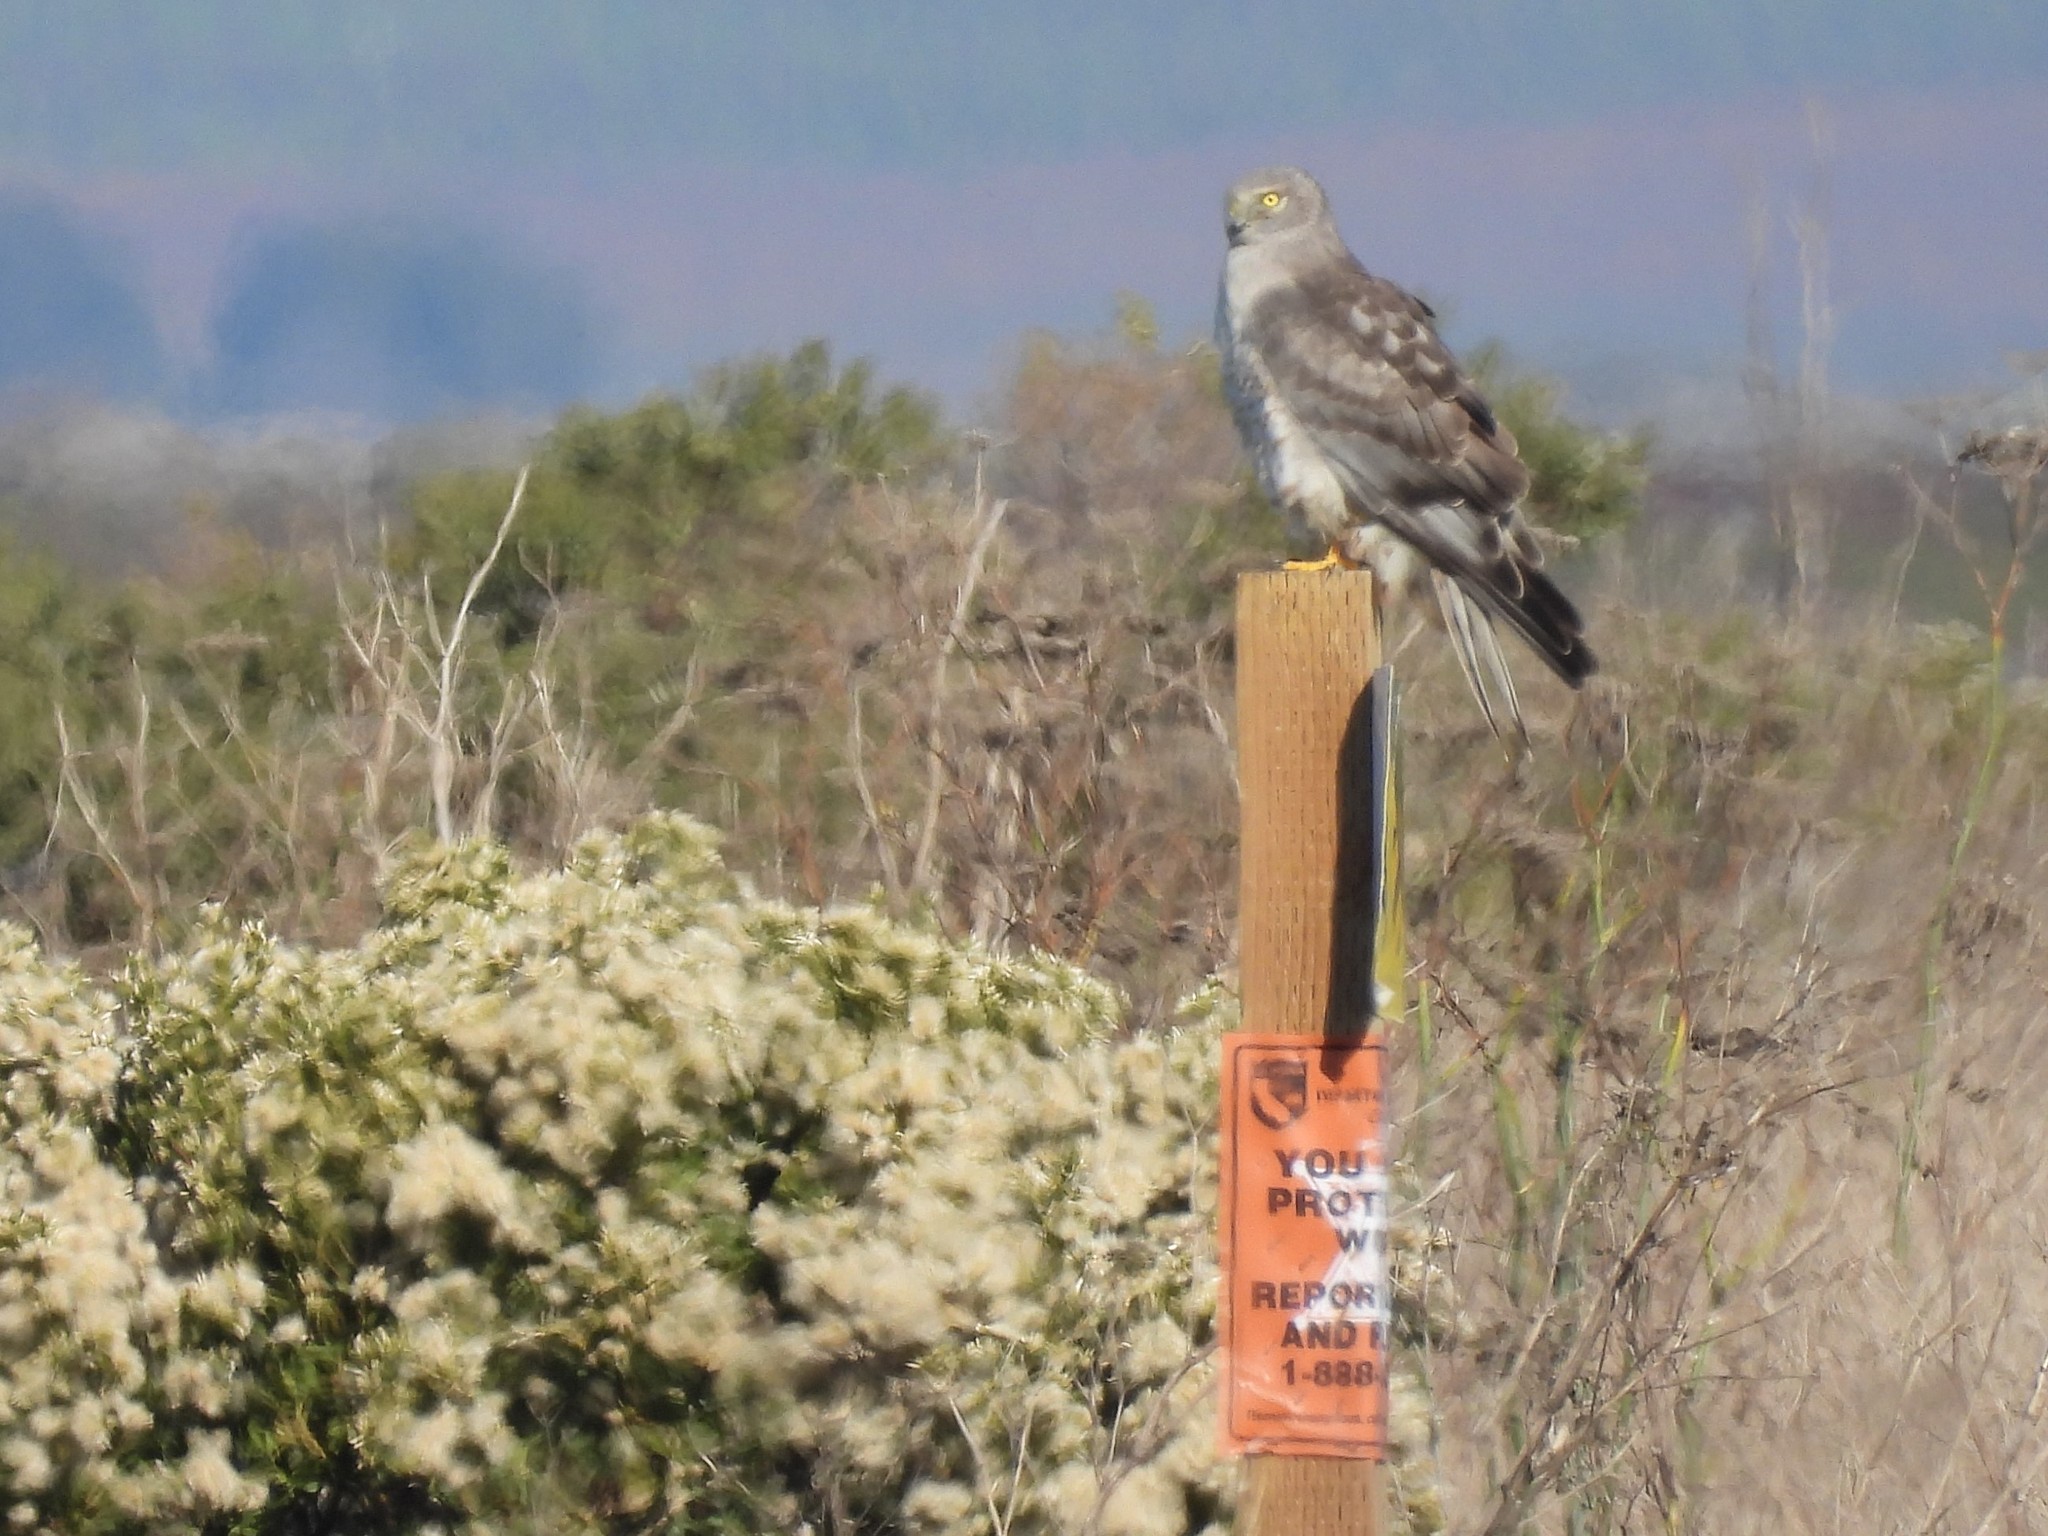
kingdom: Animalia
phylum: Chordata
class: Aves
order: Accipitriformes
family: Accipitridae
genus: Circus
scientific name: Circus cyaneus
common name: Hen harrier
